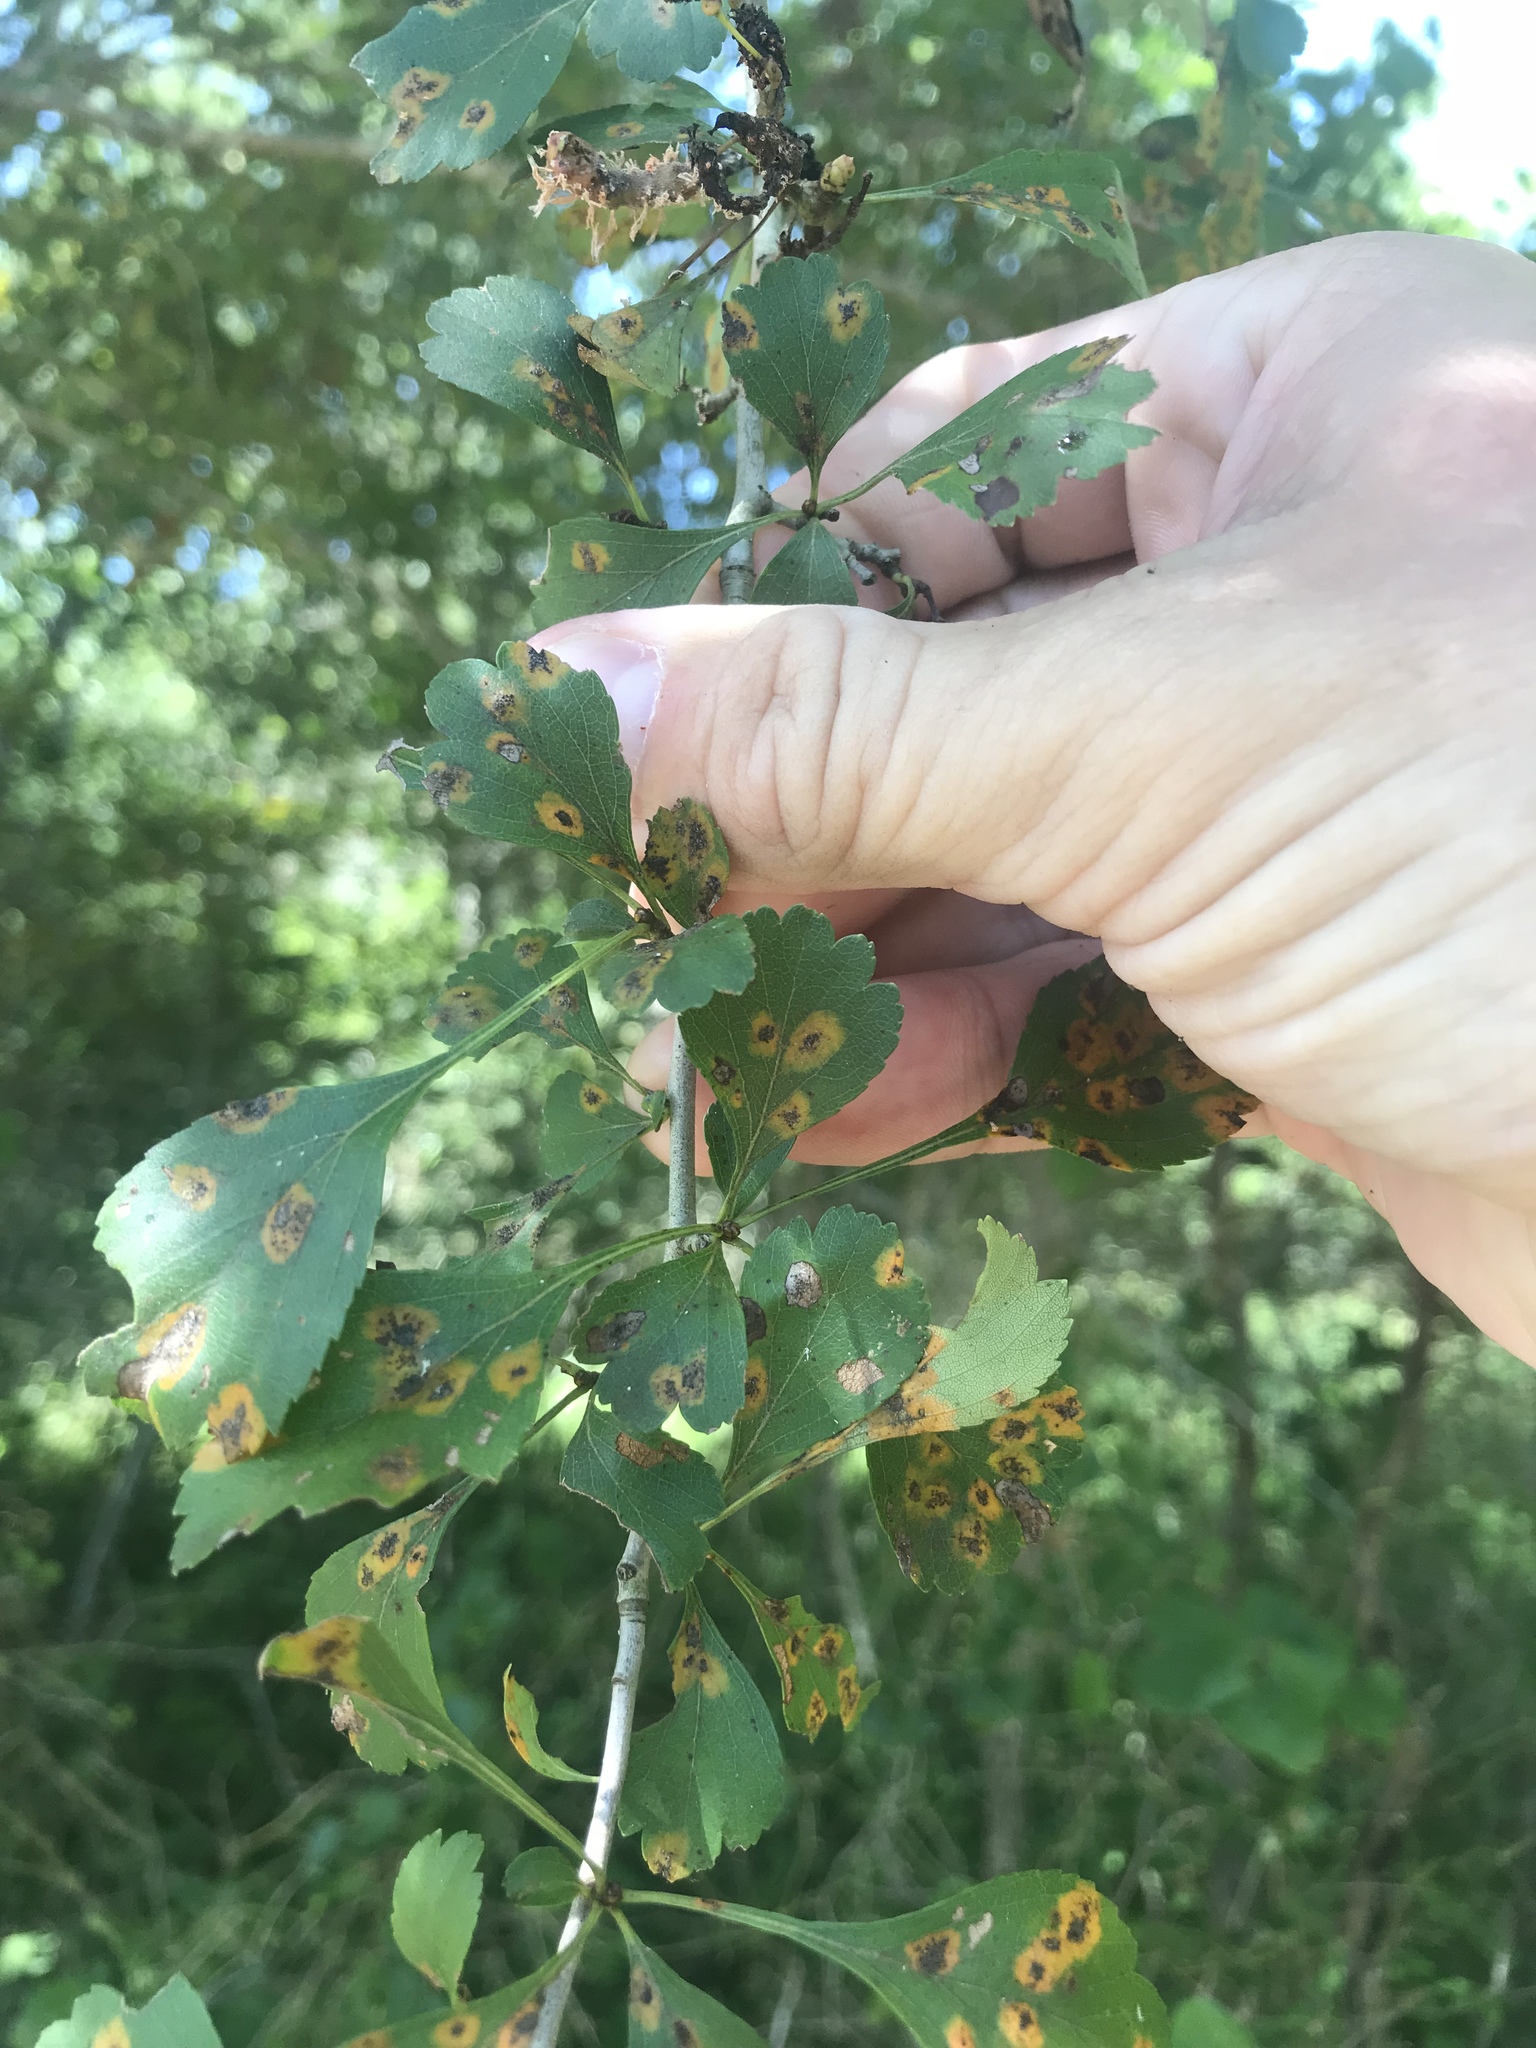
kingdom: Plantae
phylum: Tracheophyta
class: Magnoliopsida
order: Rosales
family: Rosaceae
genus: Crataegus
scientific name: Crataegus spathulata
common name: Littlehip hawthorn
